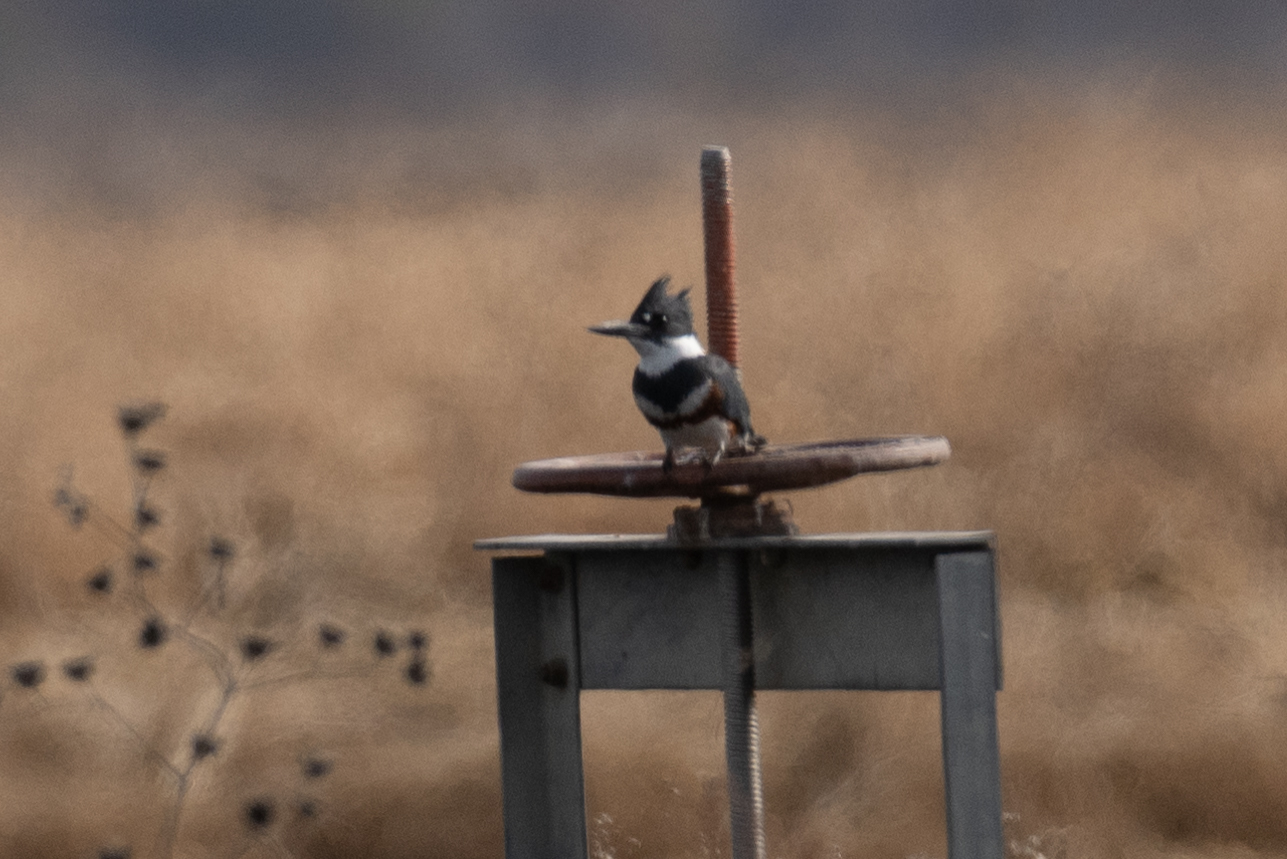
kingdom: Animalia
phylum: Chordata
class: Aves
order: Coraciiformes
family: Alcedinidae
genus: Megaceryle
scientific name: Megaceryle alcyon
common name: Belted kingfisher
